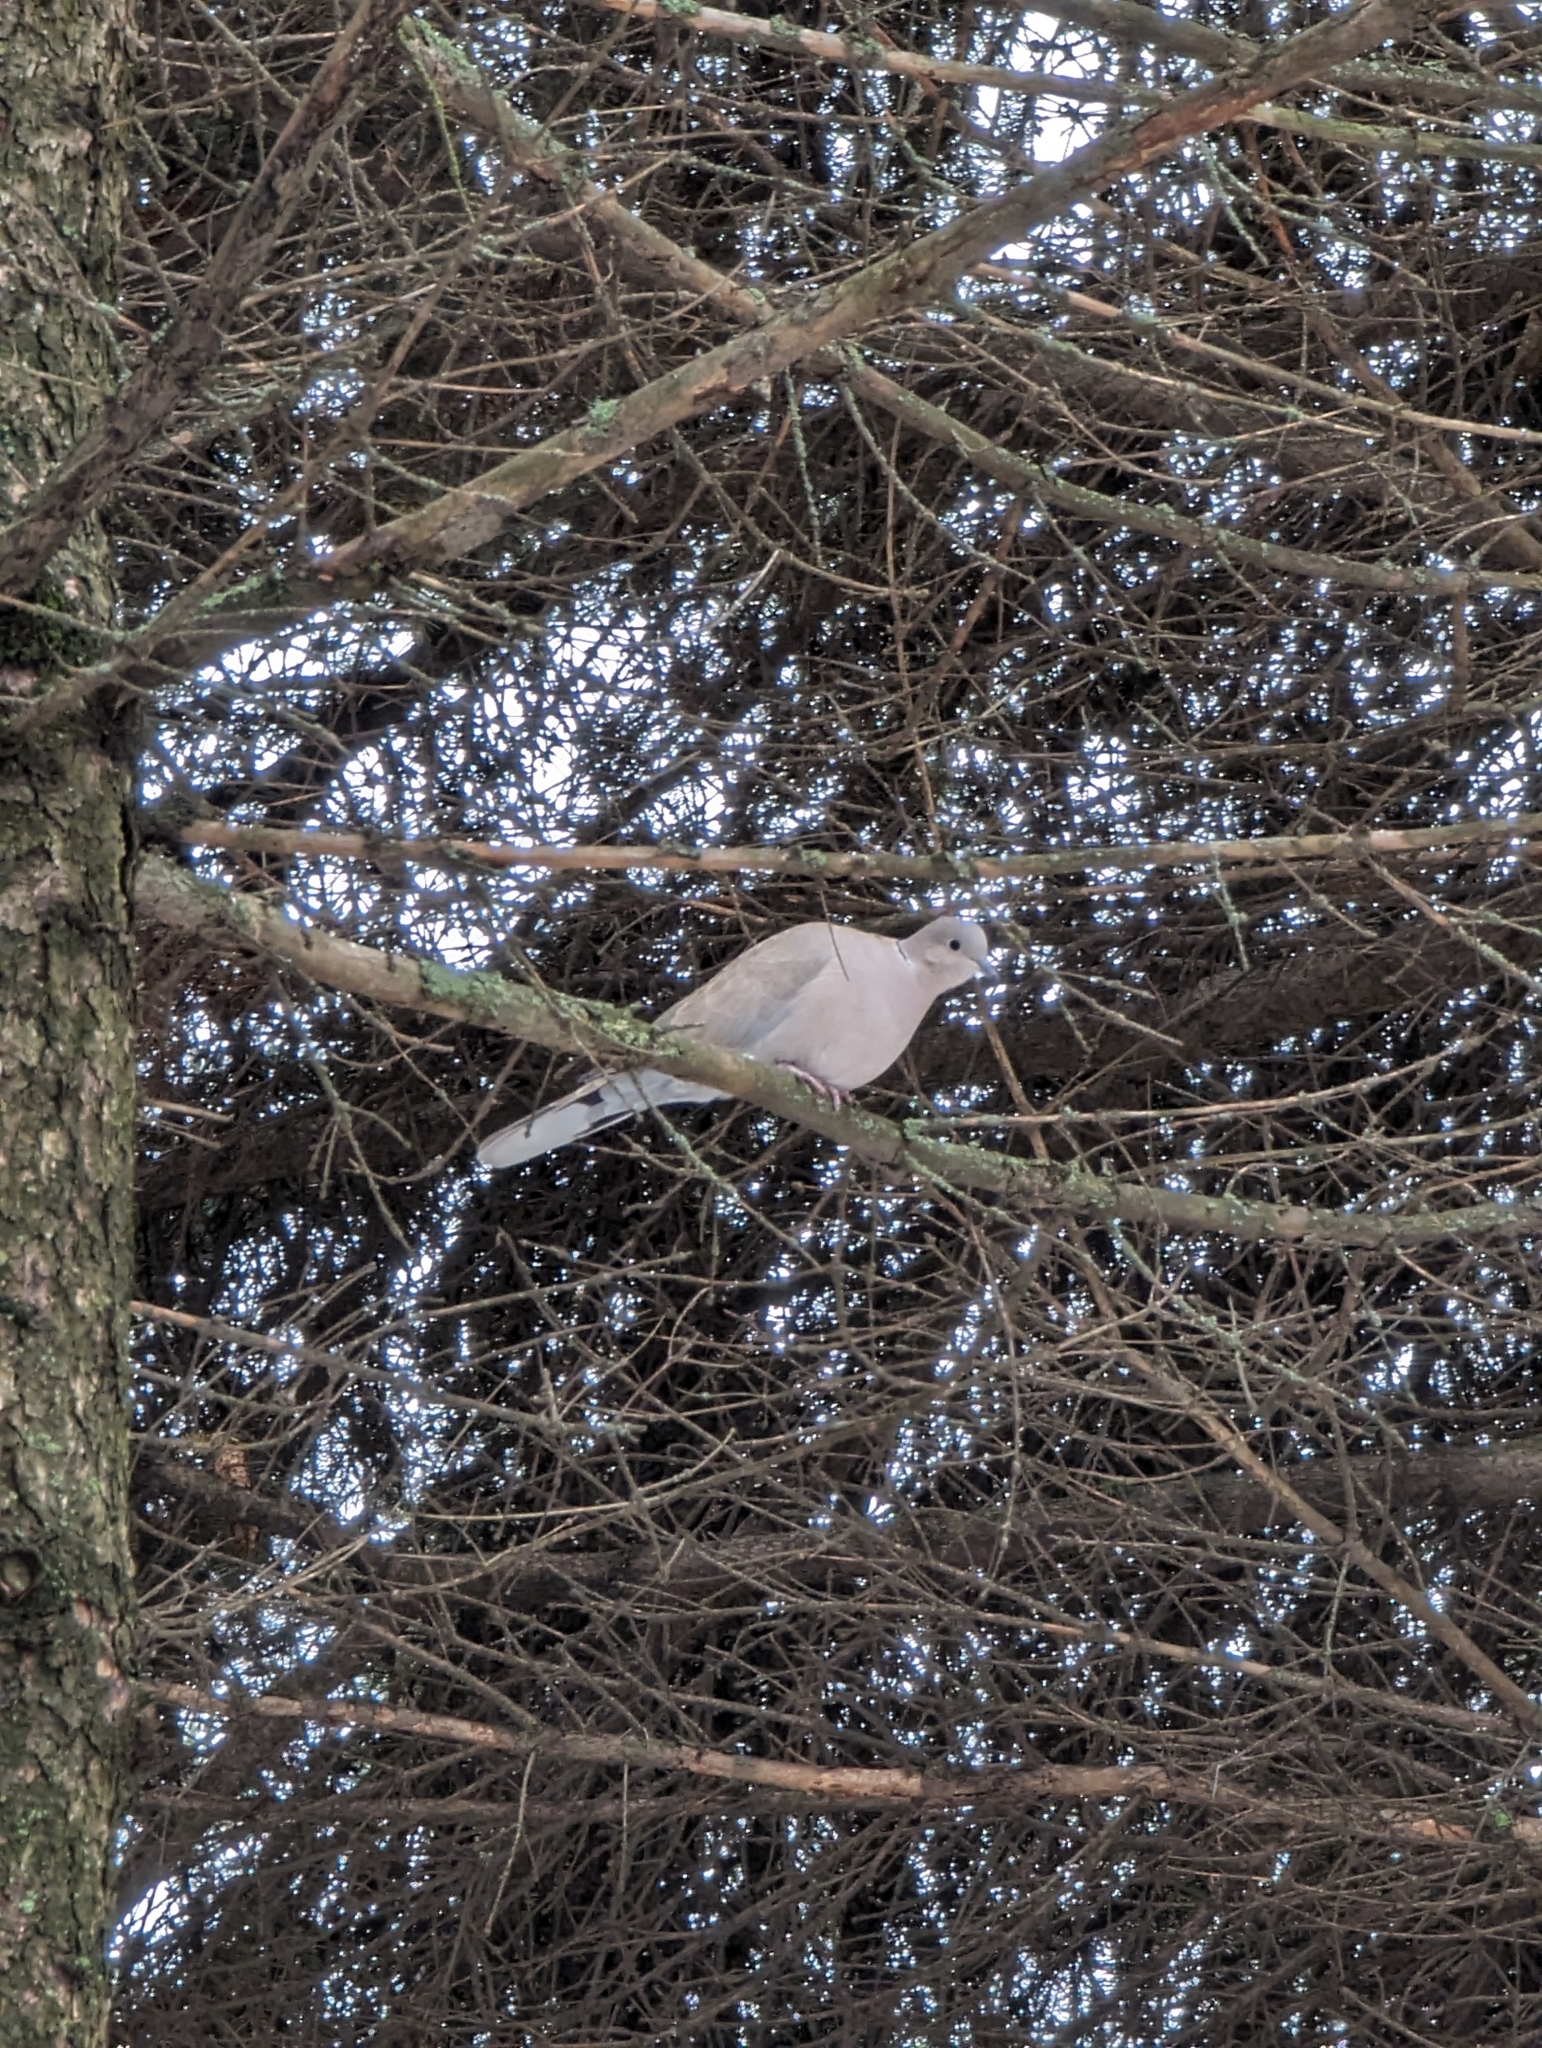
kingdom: Animalia
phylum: Chordata
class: Aves
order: Columbiformes
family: Columbidae
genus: Streptopelia
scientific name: Streptopelia decaocto
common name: Eurasian collared dove
